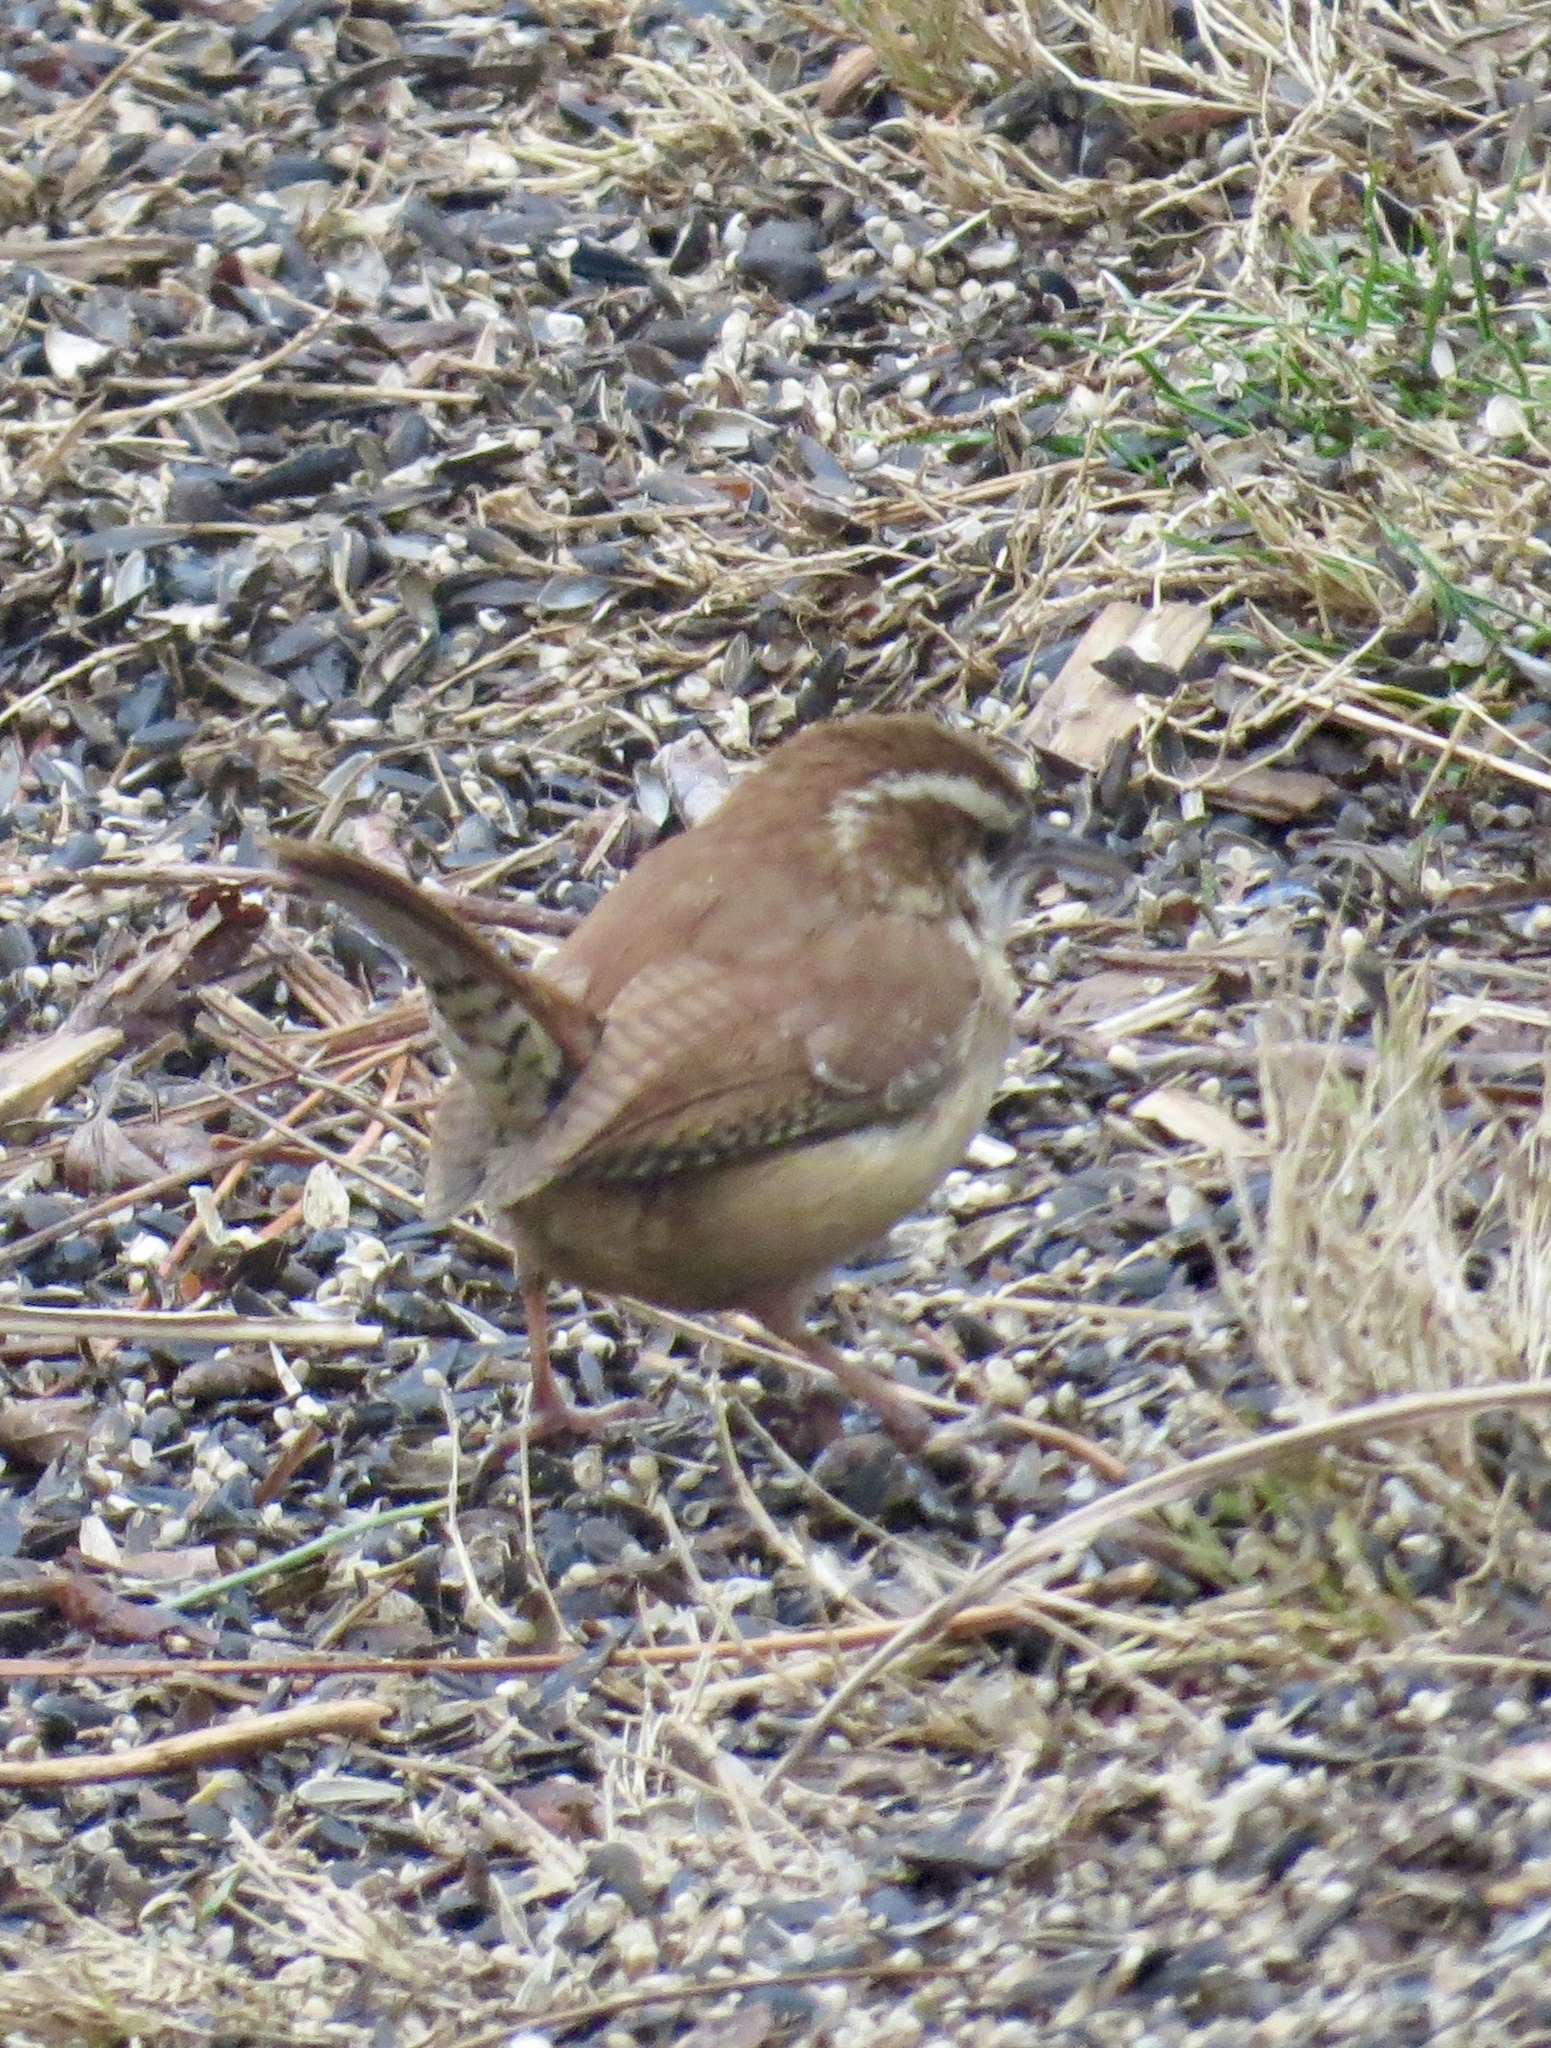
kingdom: Animalia
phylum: Chordata
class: Aves
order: Passeriformes
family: Troglodytidae
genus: Thryothorus
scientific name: Thryothorus ludovicianus
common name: Carolina wren
